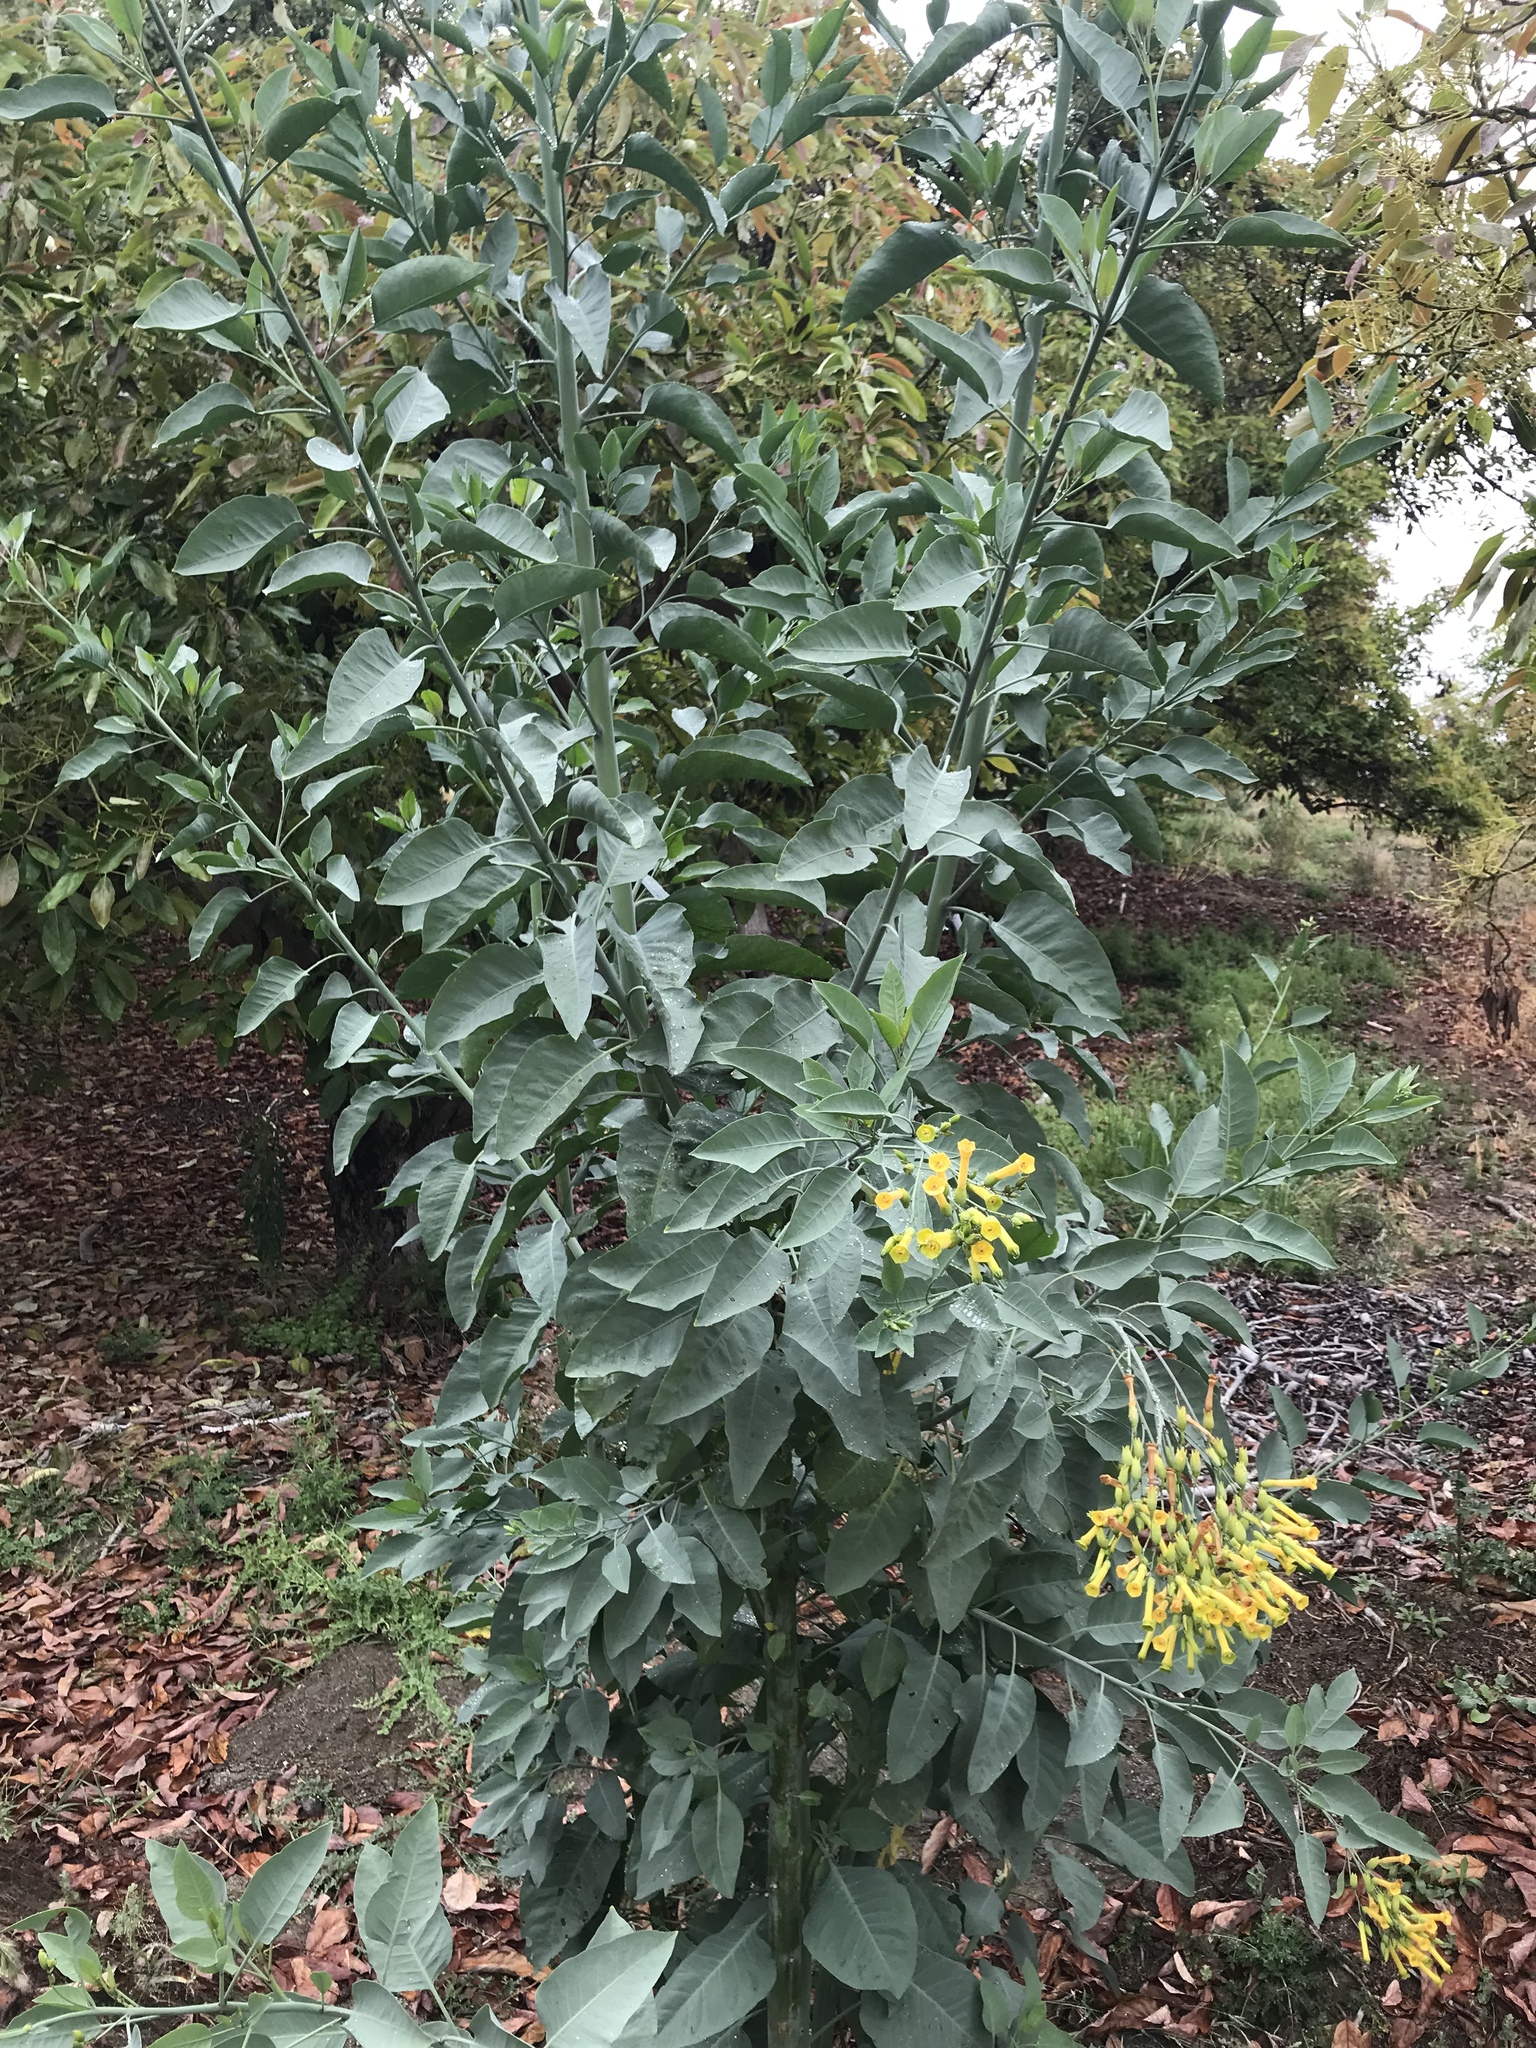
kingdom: Plantae
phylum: Tracheophyta
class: Magnoliopsida
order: Solanales
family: Solanaceae
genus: Nicotiana
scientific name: Nicotiana glauca
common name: Tree tobacco
